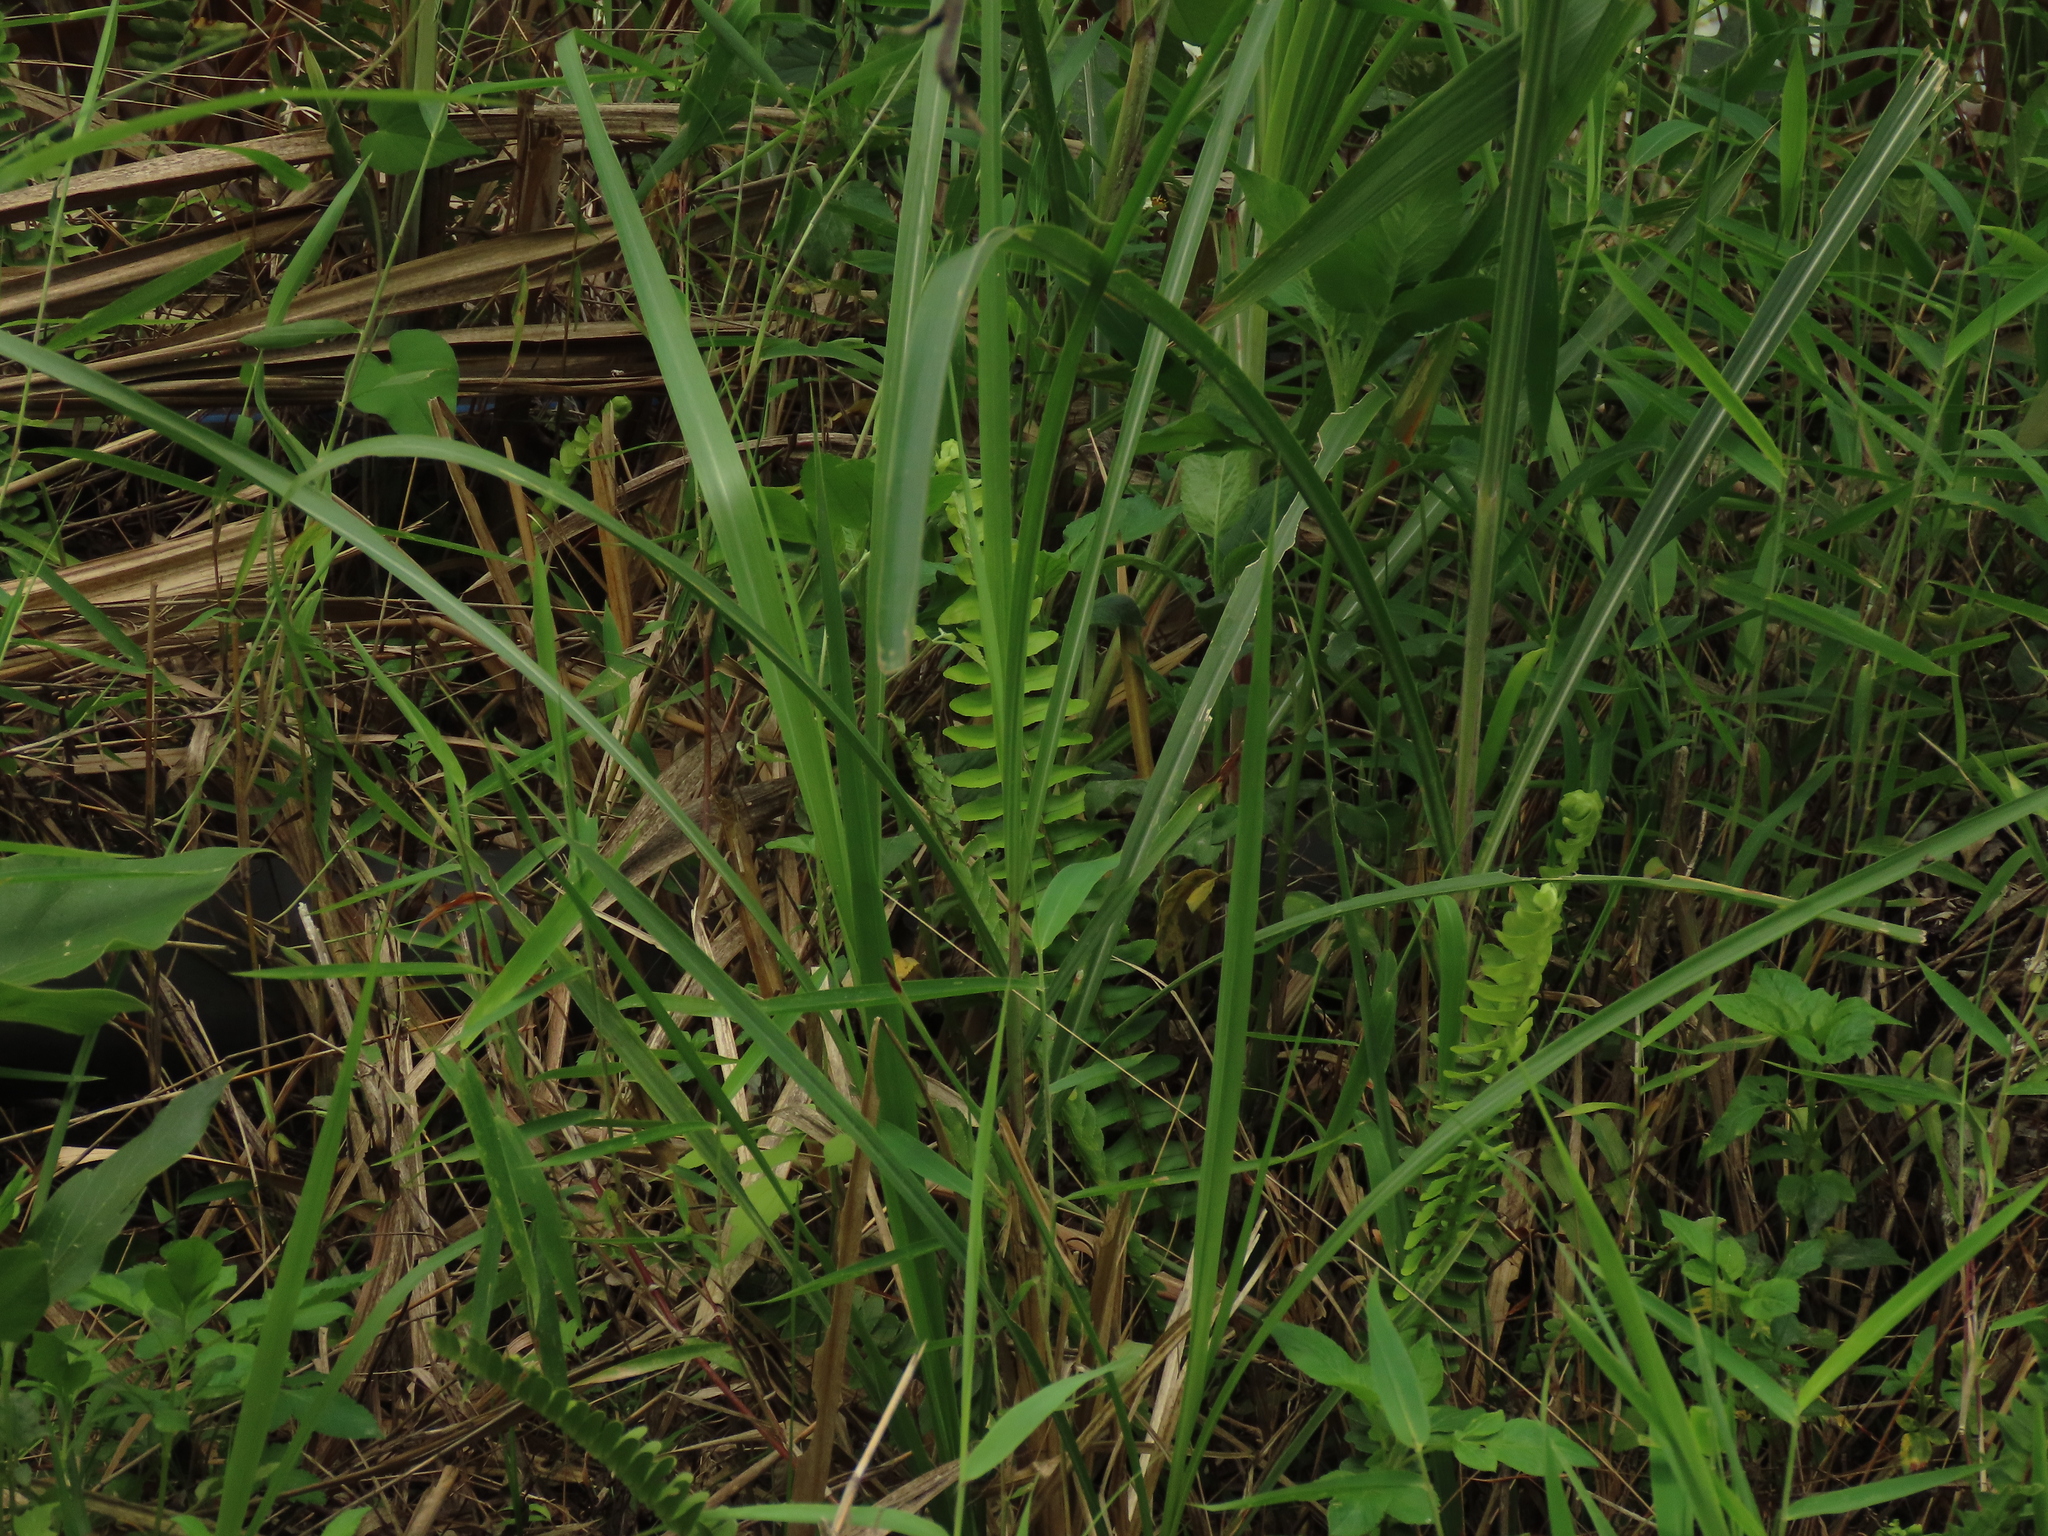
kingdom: Plantae
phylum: Tracheophyta
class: Polypodiopsida
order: Polypodiales
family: Nephrolepidaceae
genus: Nephrolepis
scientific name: Nephrolepis cordifolia
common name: Narrow swordfern
